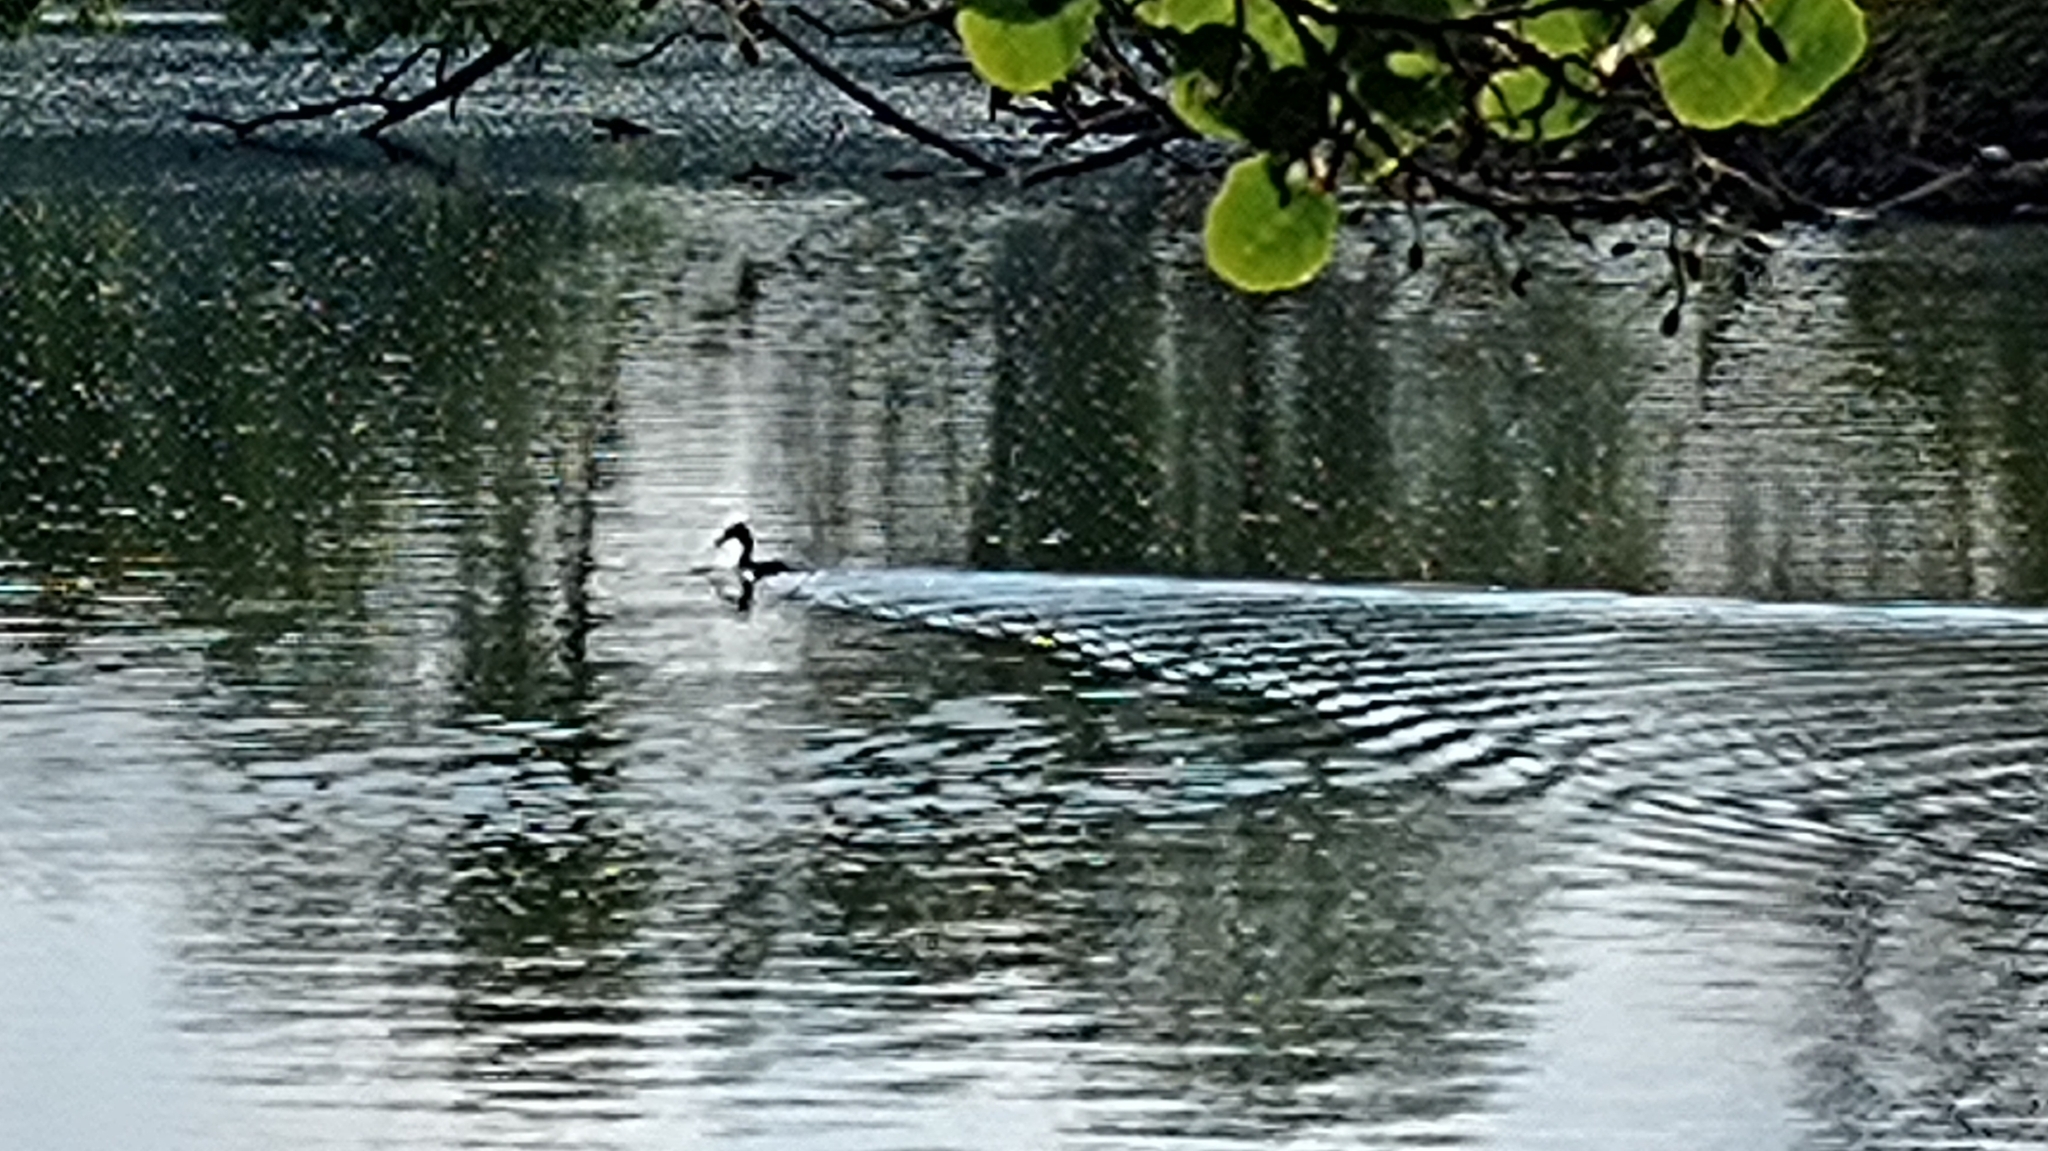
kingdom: Animalia
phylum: Chordata
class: Aves
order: Podicipediformes
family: Podicipedidae
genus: Podiceps
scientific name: Podiceps cristatus
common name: Great crested grebe
